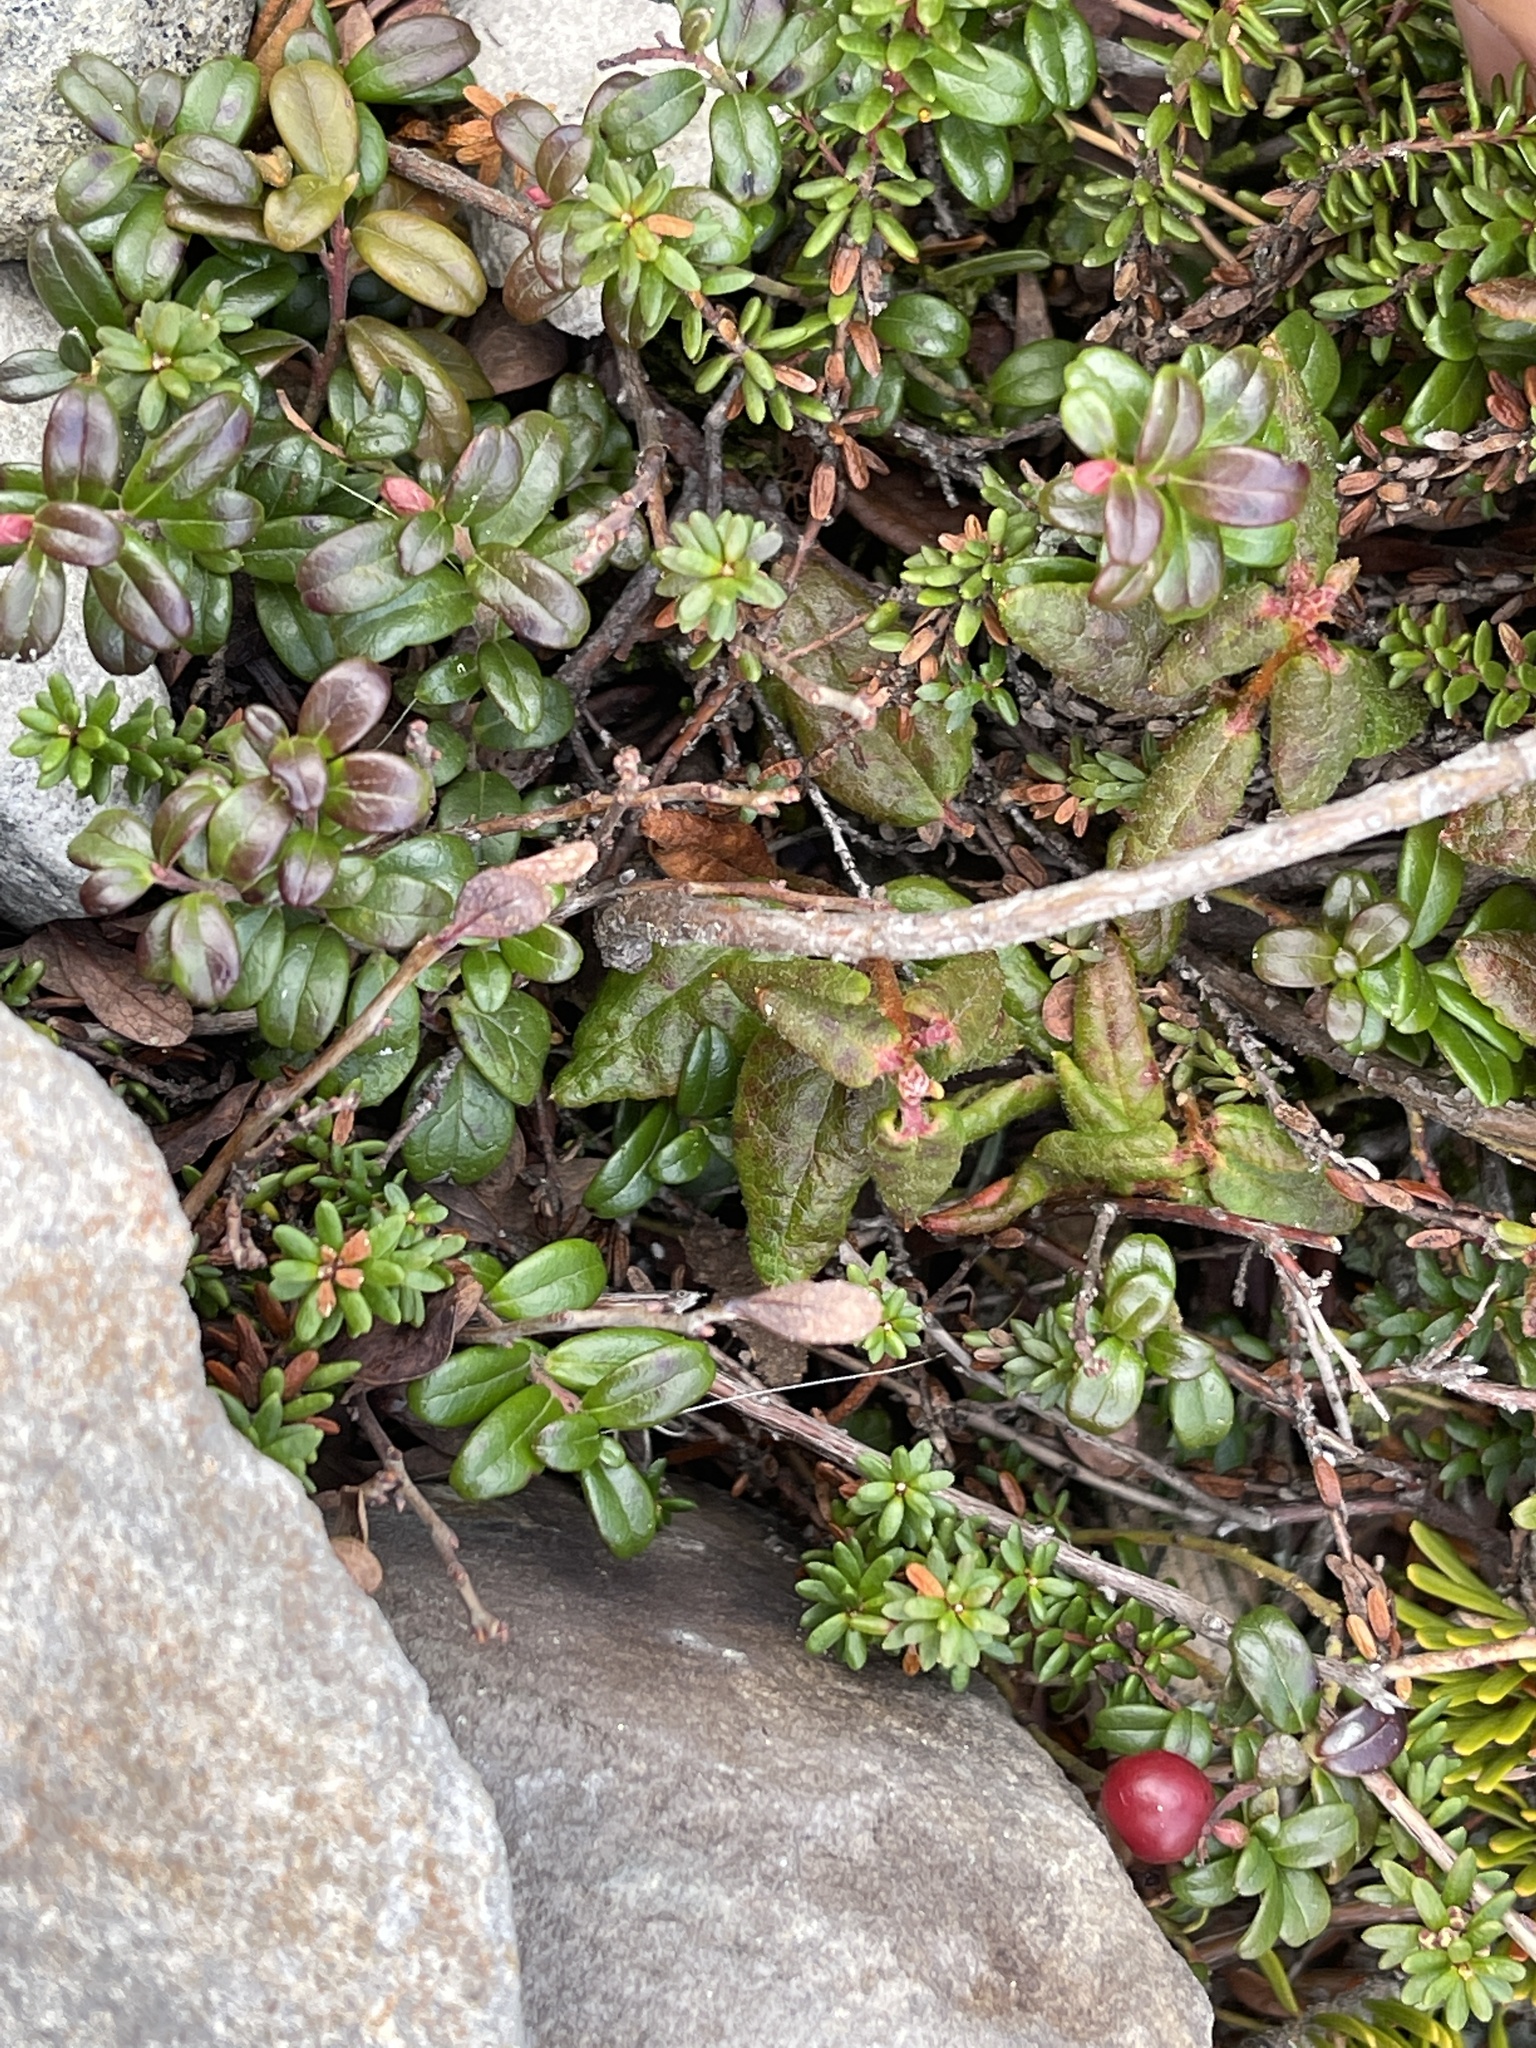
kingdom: Plantae
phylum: Tracheophyta
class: Magnoliopsida
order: Ericales
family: Ericaceae
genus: Vaccinium
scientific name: Vaccinium vitis-idaea
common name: Cowberry
